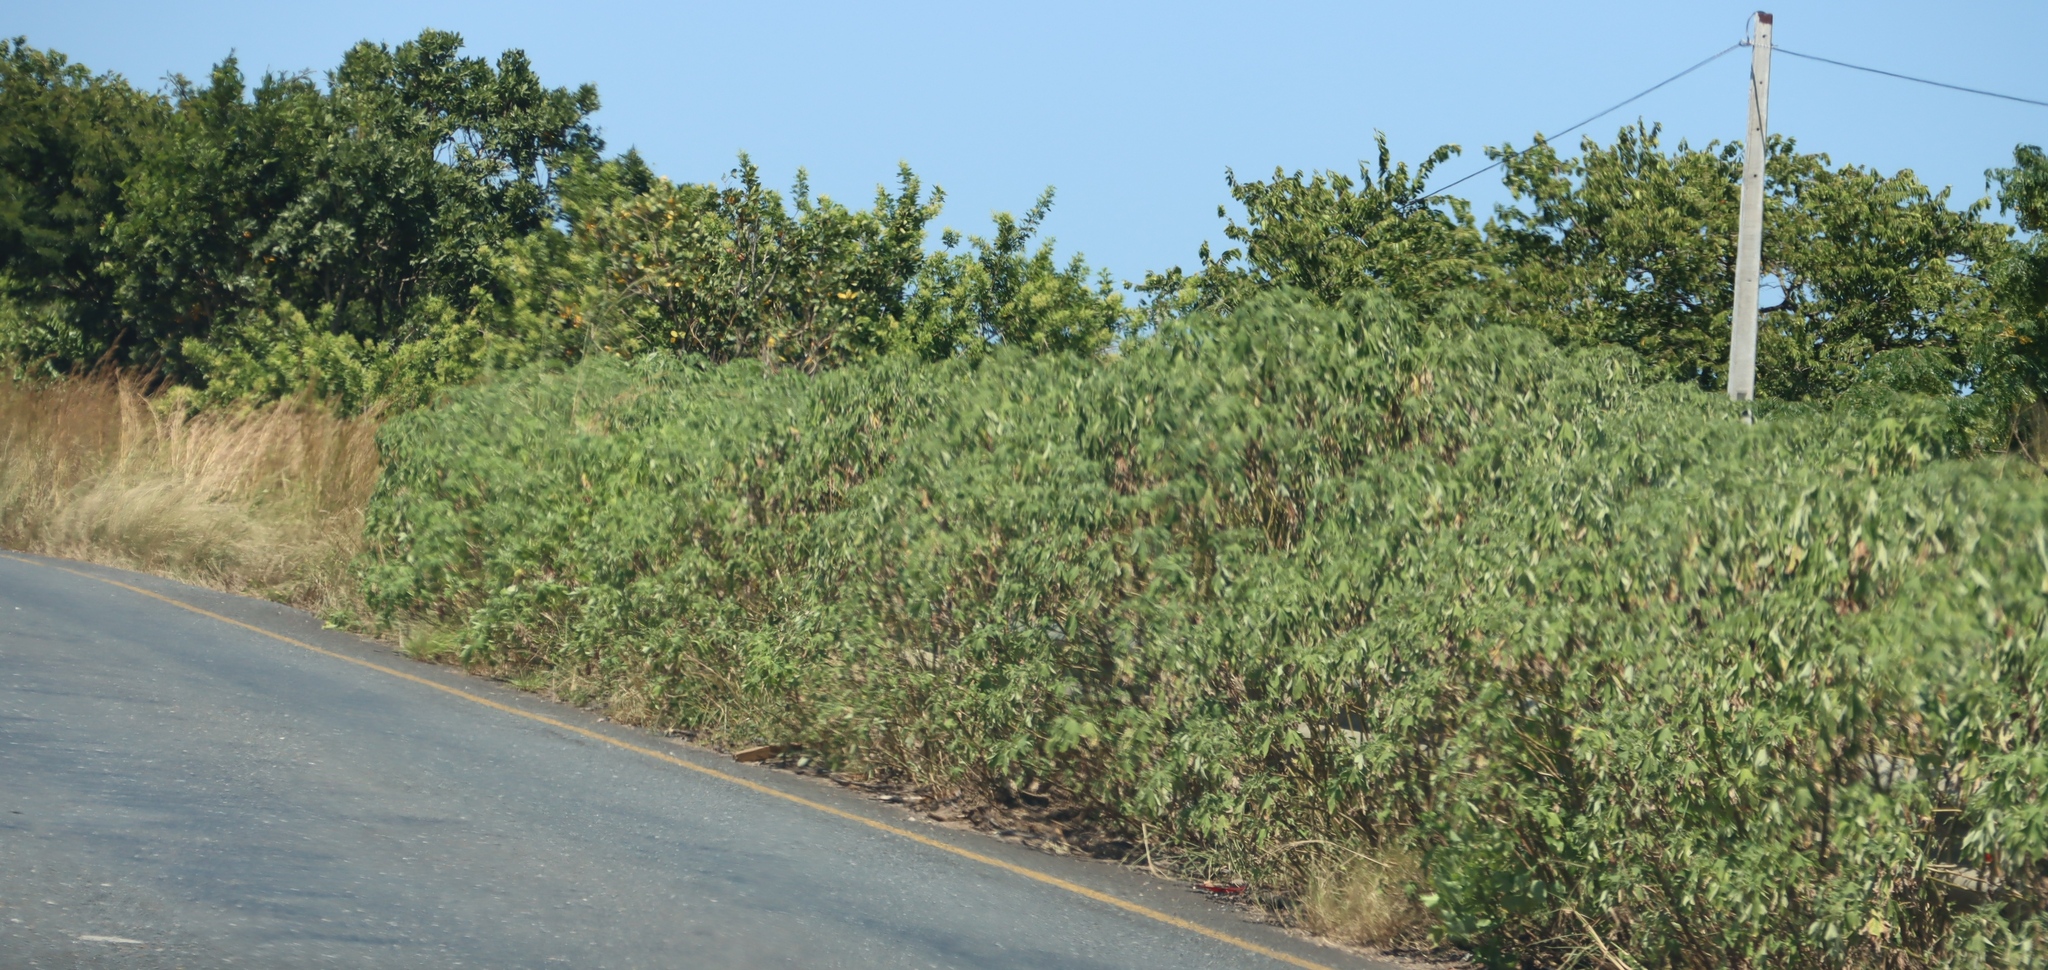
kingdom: Plantae
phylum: Tracheophyta
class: Magnoliopsida
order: Asterales
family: Asteraceae
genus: Tithonia
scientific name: Tithonia diversifolia
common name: Tree marigold
